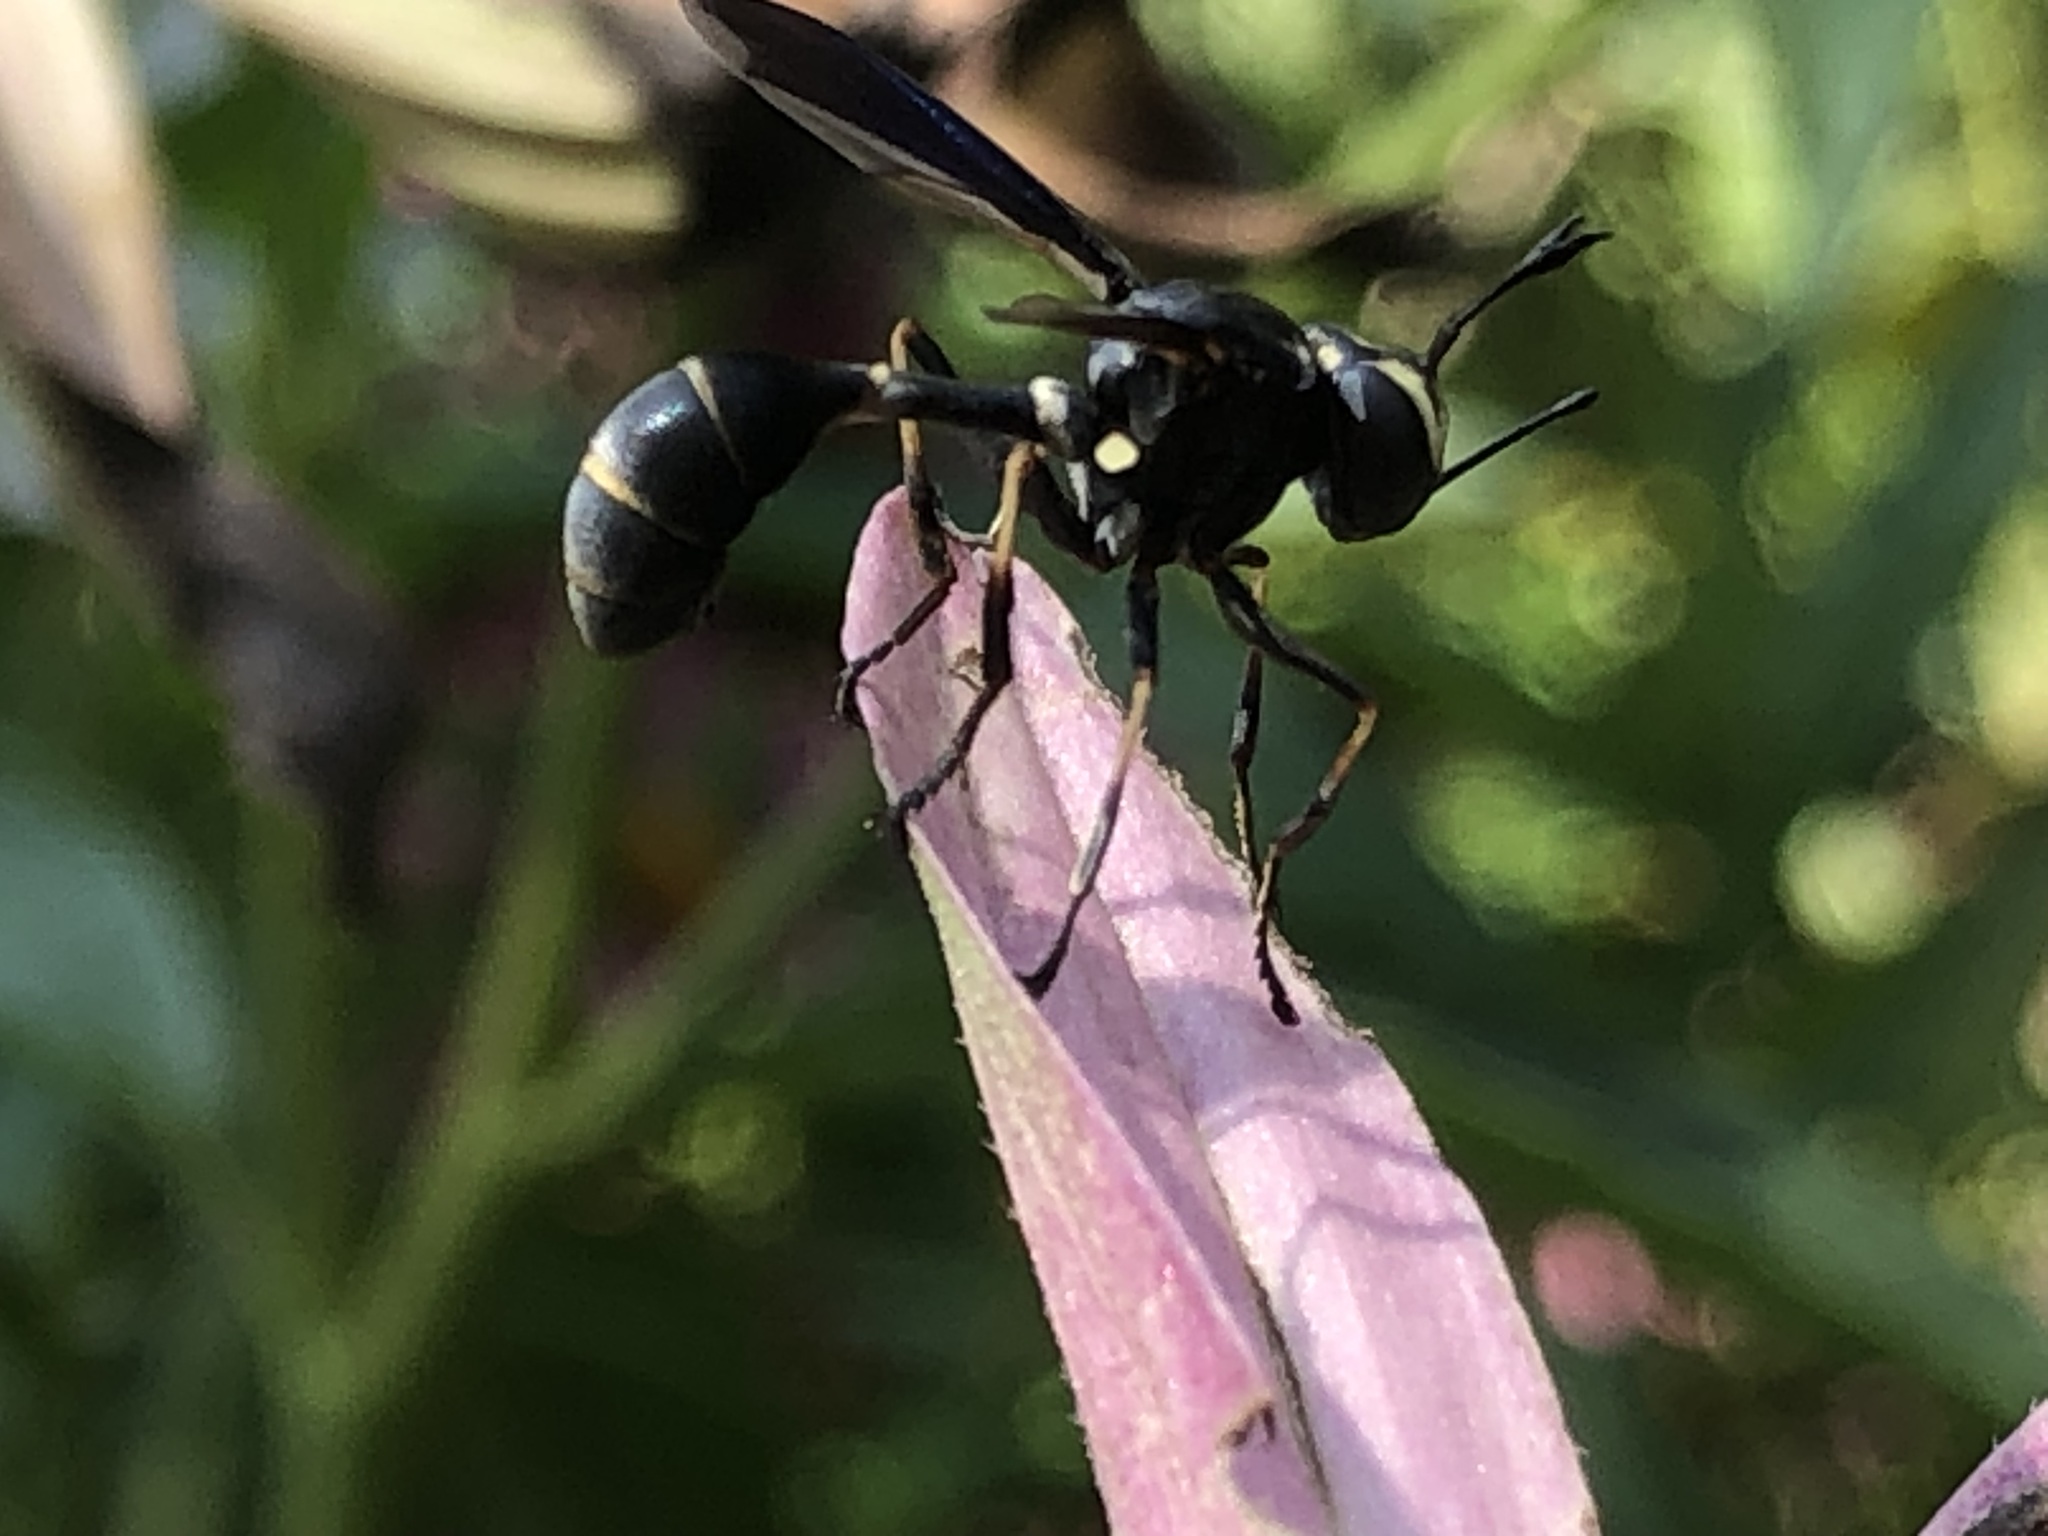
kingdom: Animalia
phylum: Arthropoda
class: Insecta
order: Diptera
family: Conopidae
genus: Physocephala
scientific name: Physocephala tibialis
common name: Common eastern physocephala
